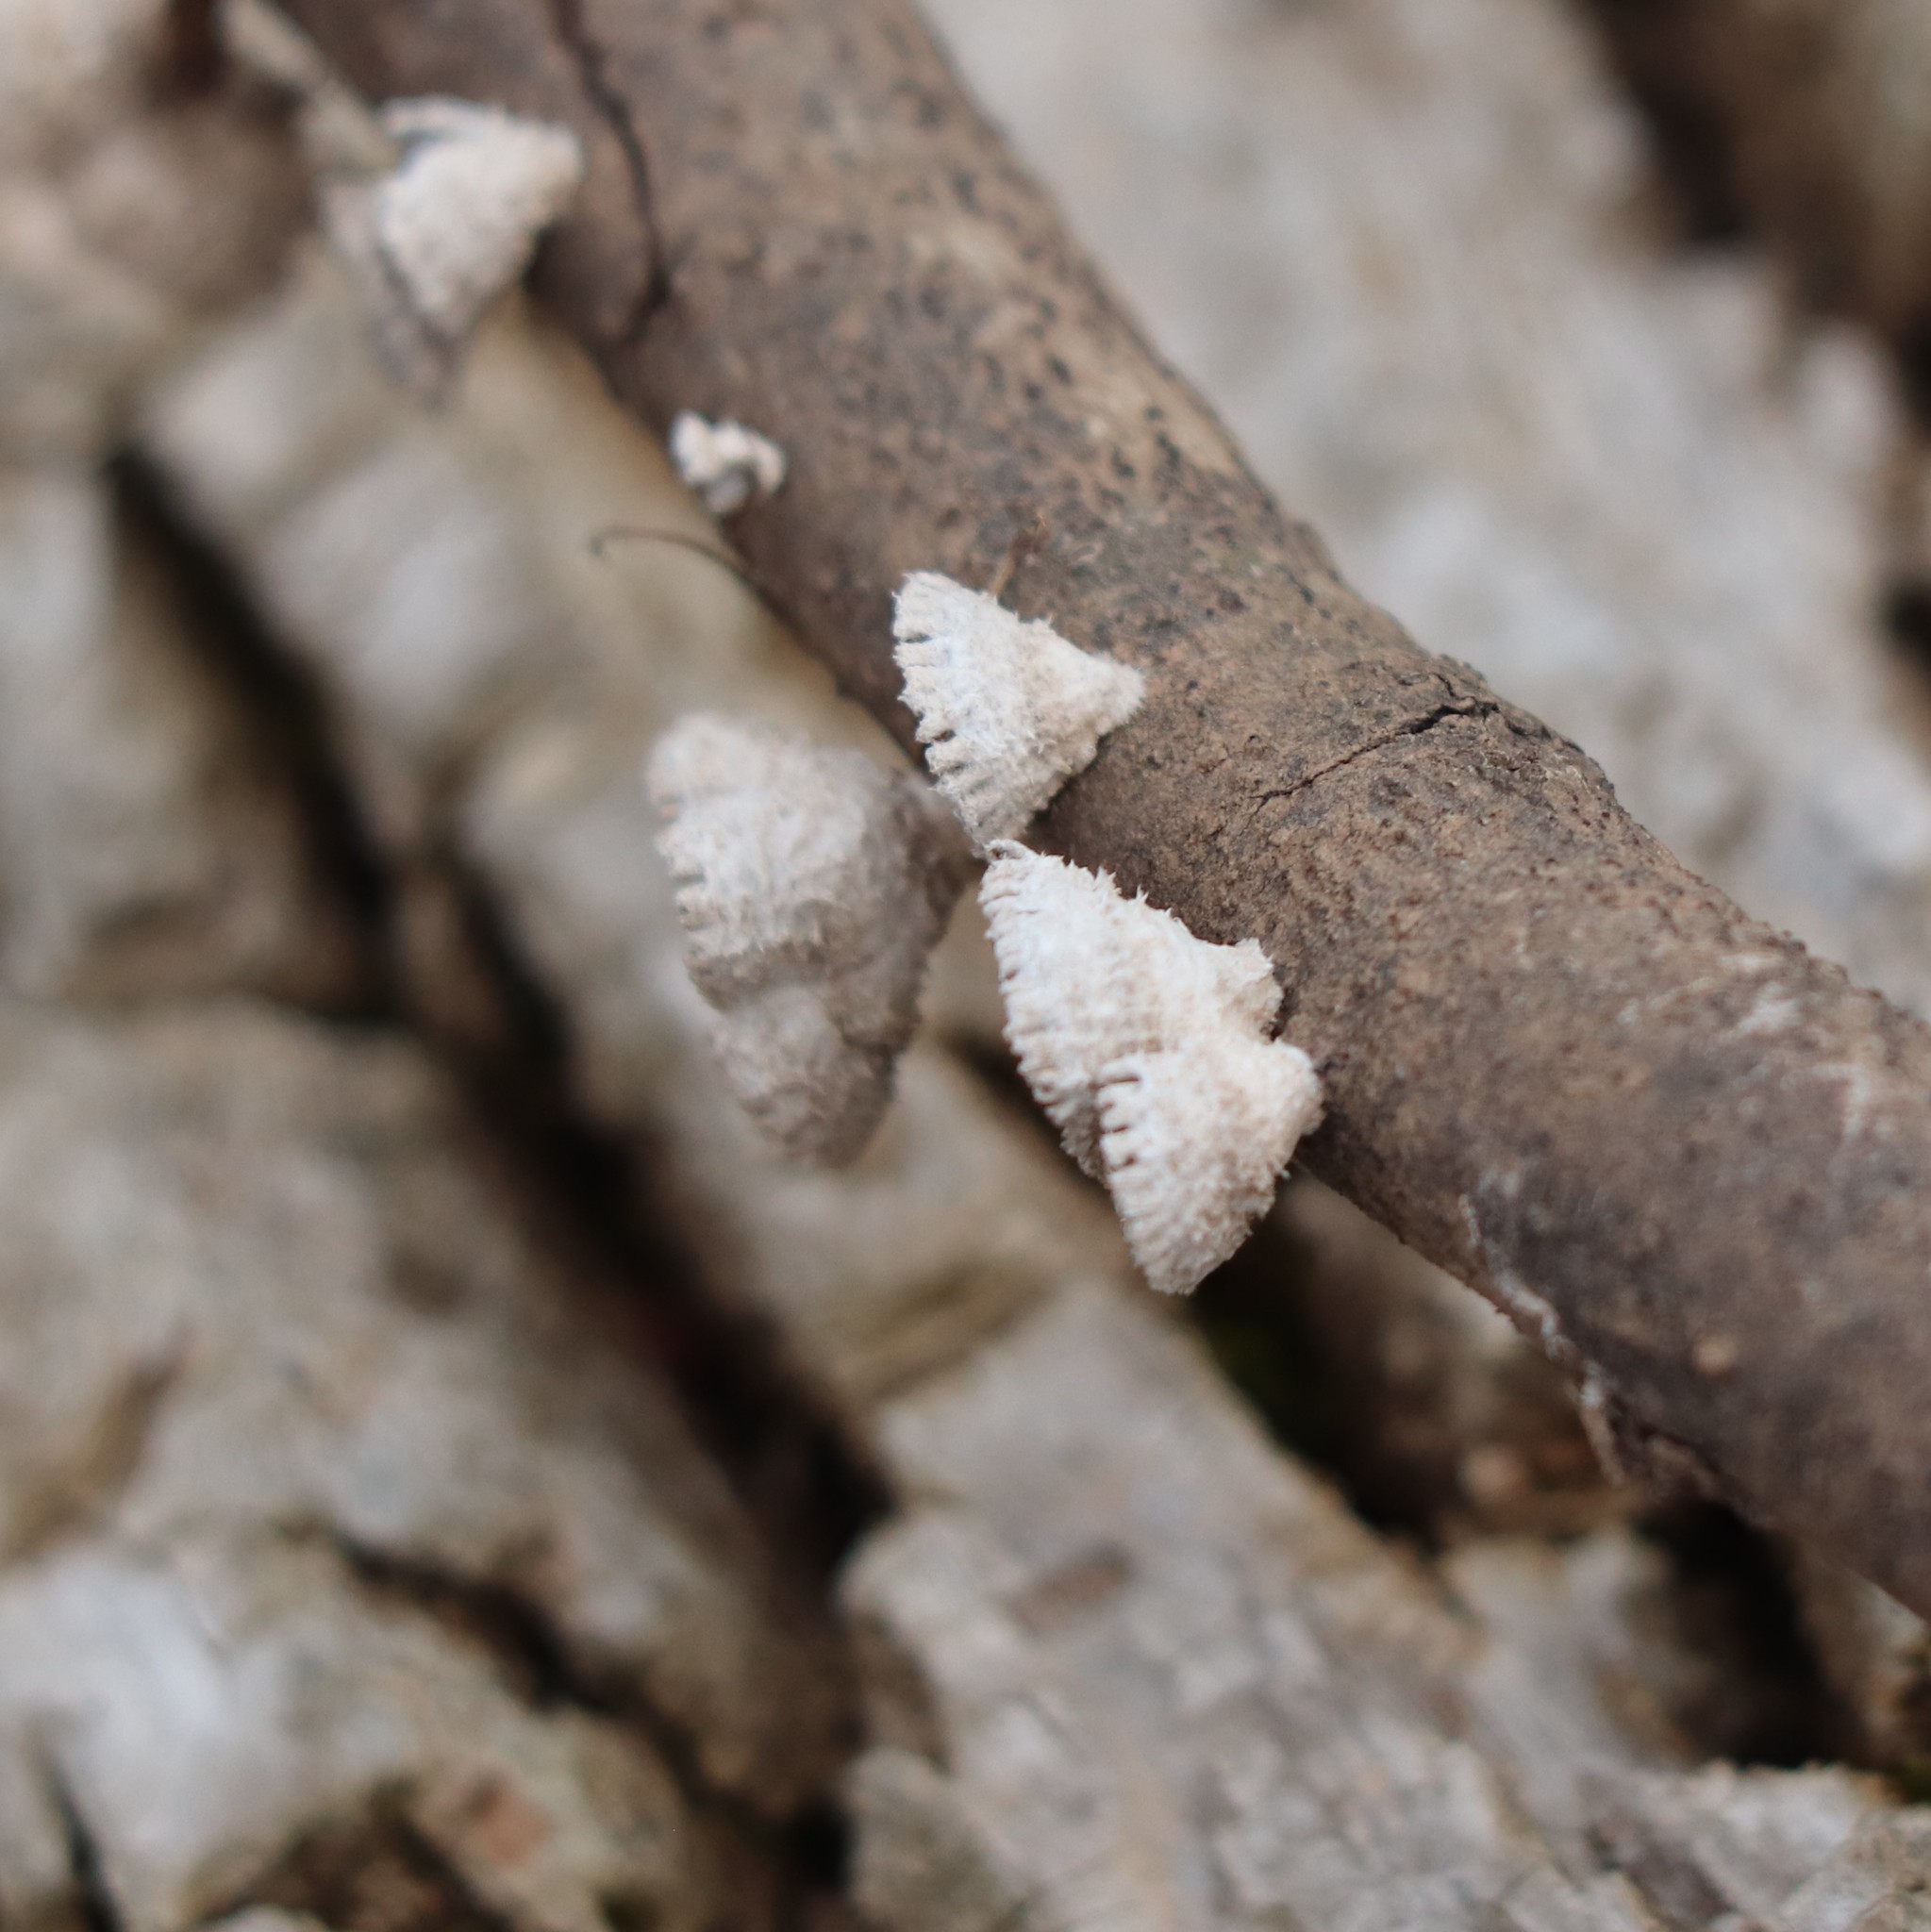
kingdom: Fungi
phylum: Basidiomycota
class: Agaricomycetes
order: Agaricales
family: Schizophyllaceae
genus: Schizophyllum
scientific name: Schizophyllum commune
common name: Common porecrust
